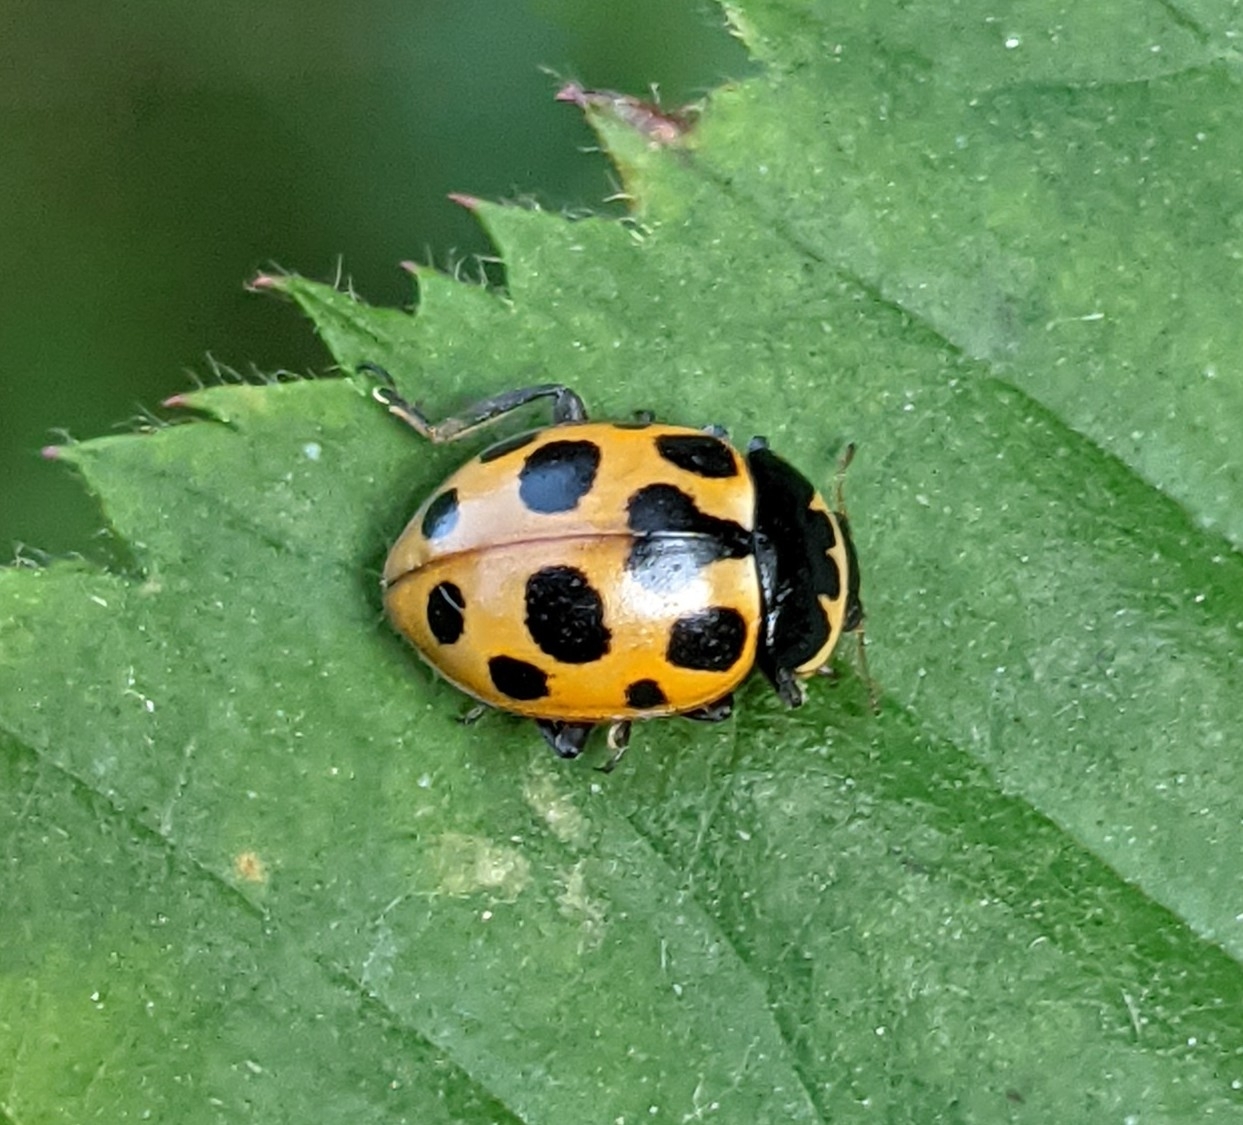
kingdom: Animalia
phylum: Arthropoda
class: Insecta
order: Coleoptera
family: Coccinellidae
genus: Ceratomegilla
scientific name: Ceratomegilla notata
